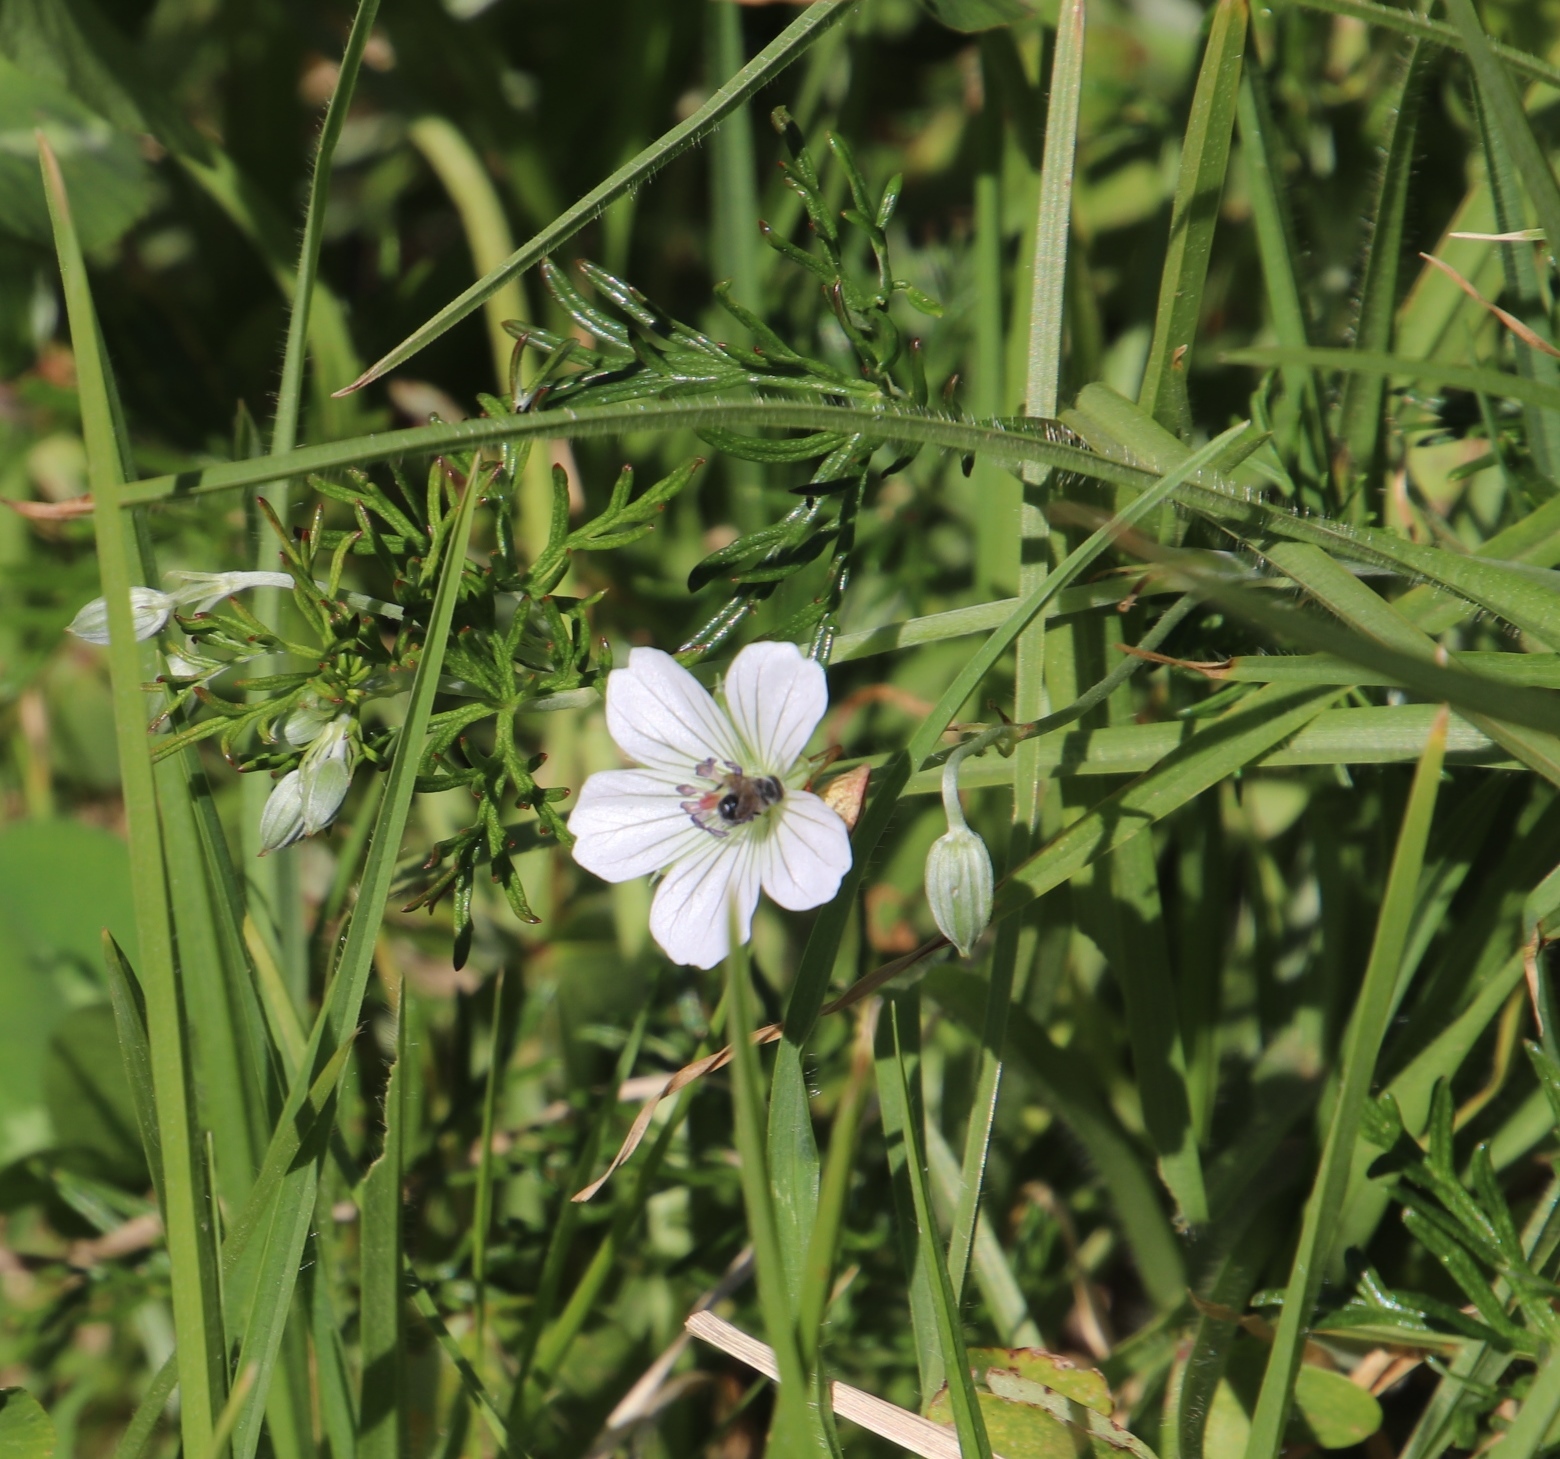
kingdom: Plantae
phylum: Tracheophyta
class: Magnoliopsida
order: Geraniales
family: Geraniaceae
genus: Geranium
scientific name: Geranium incanum
